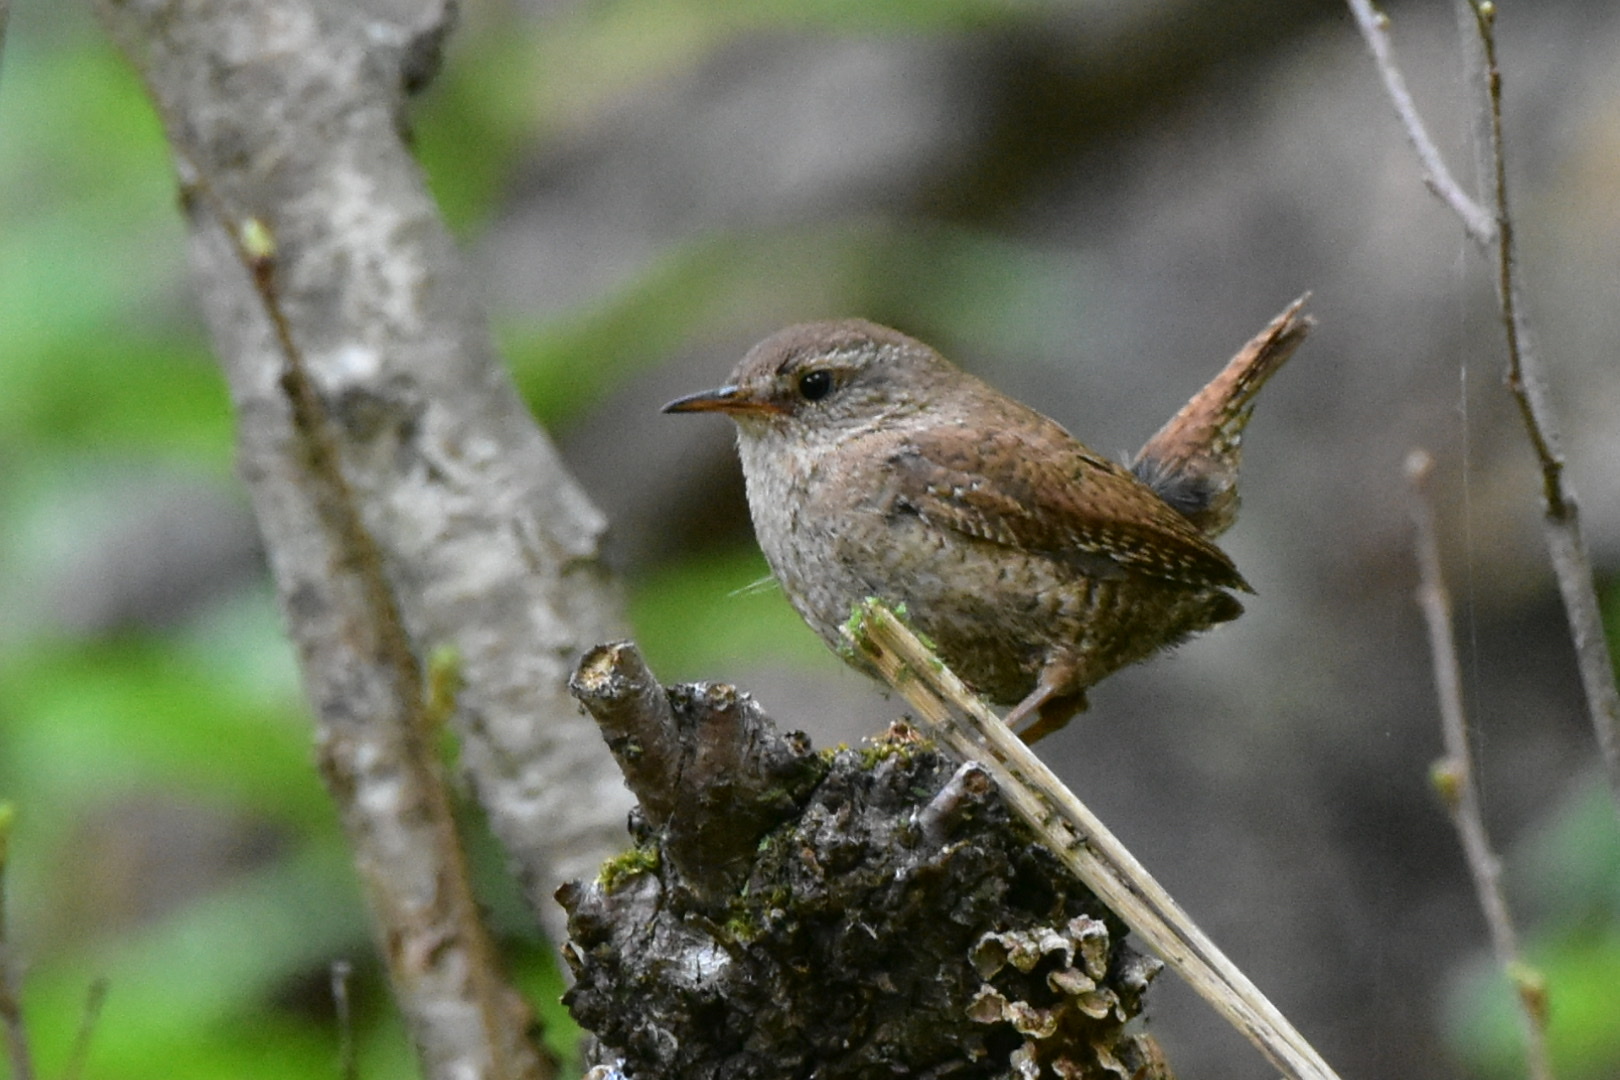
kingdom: Animalia
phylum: Chordata
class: Aves
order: Passeriformes
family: Troglodytidae
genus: Troglodytes
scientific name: Troglodytes troglodytes
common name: Eurasian wren
